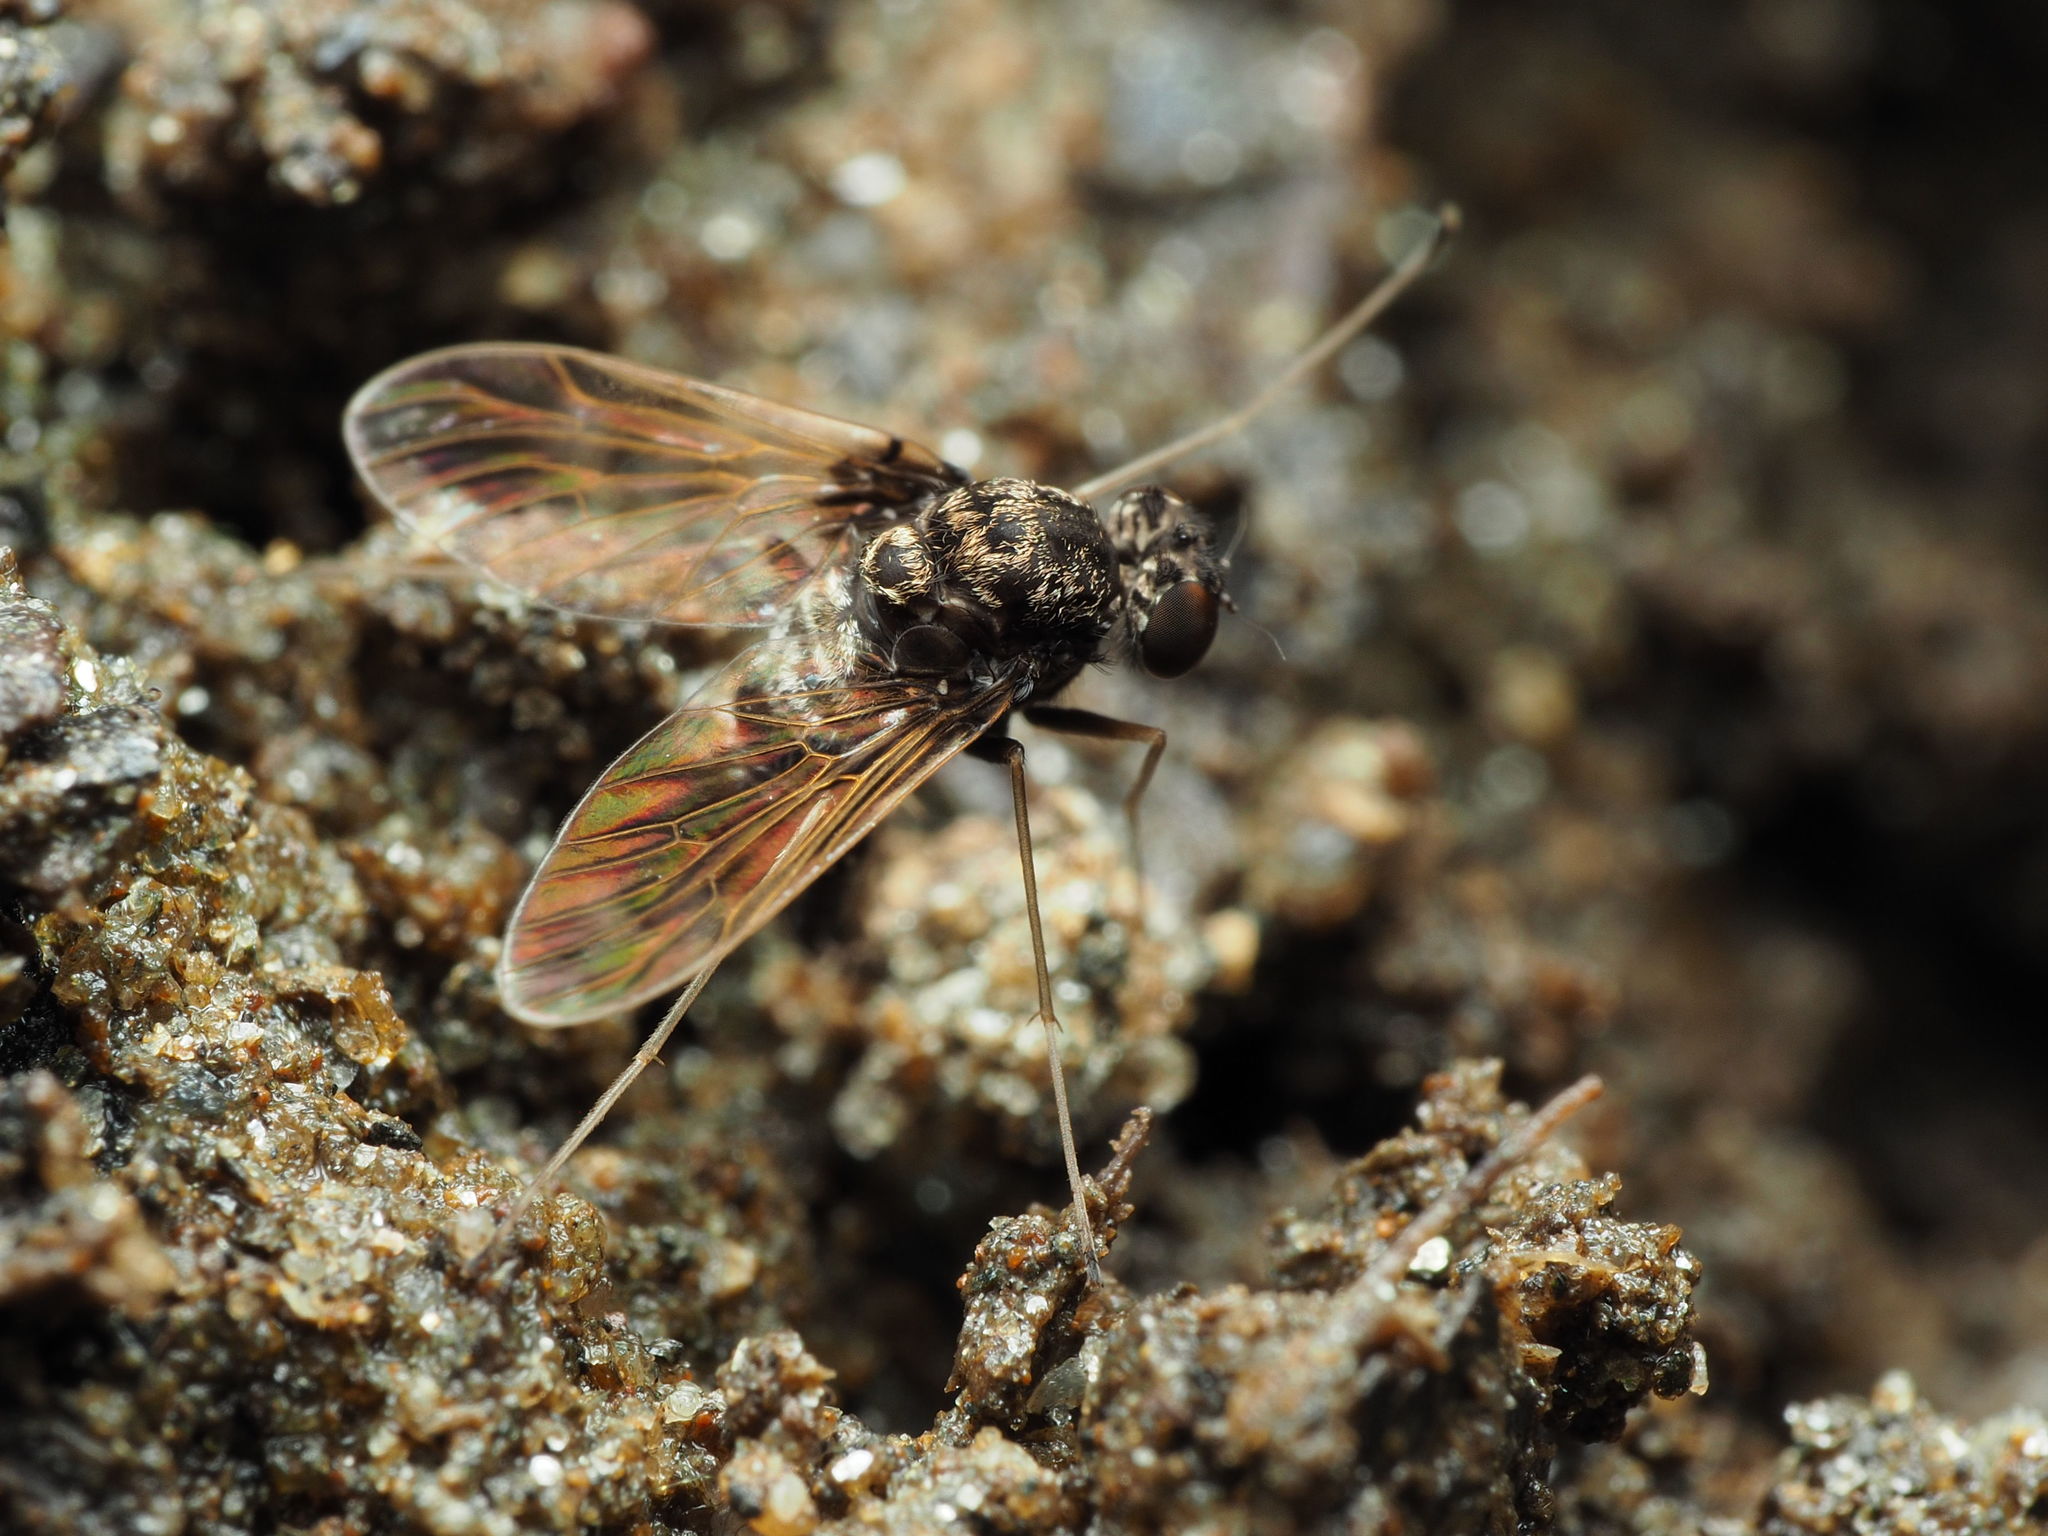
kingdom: Animalia
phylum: Arthropoda
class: Insecta
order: Diptera
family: Rhagionidae
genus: Chrysopilus
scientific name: Chrysopilus basilaris
